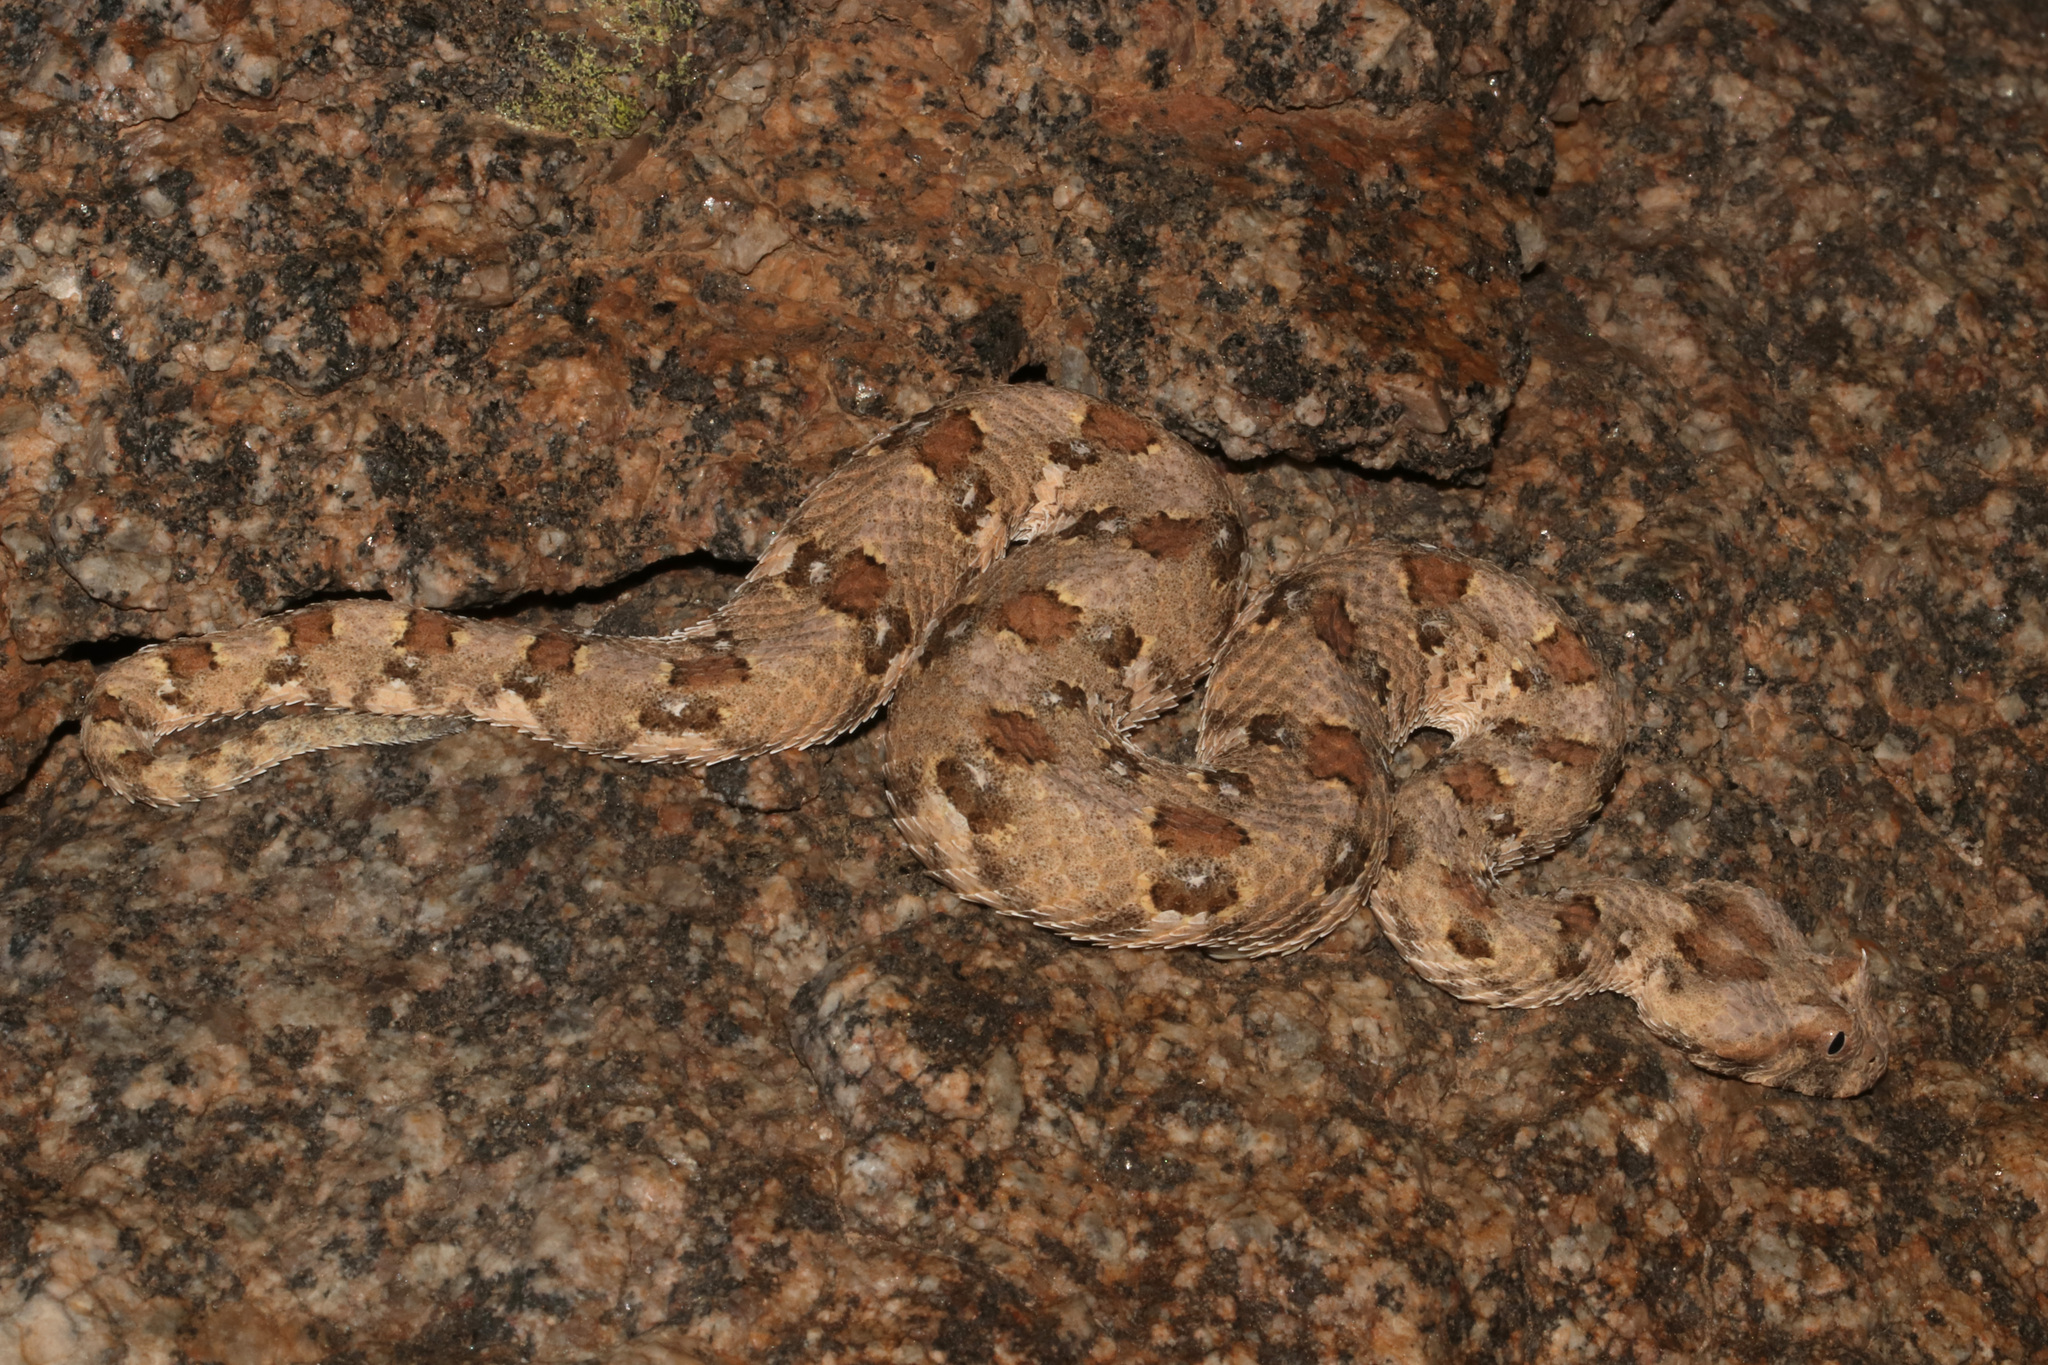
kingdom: Animalia
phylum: Chordata
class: Squamata
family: Viperidae
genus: Bitis
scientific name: Bitis caudalis
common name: Horned adder
